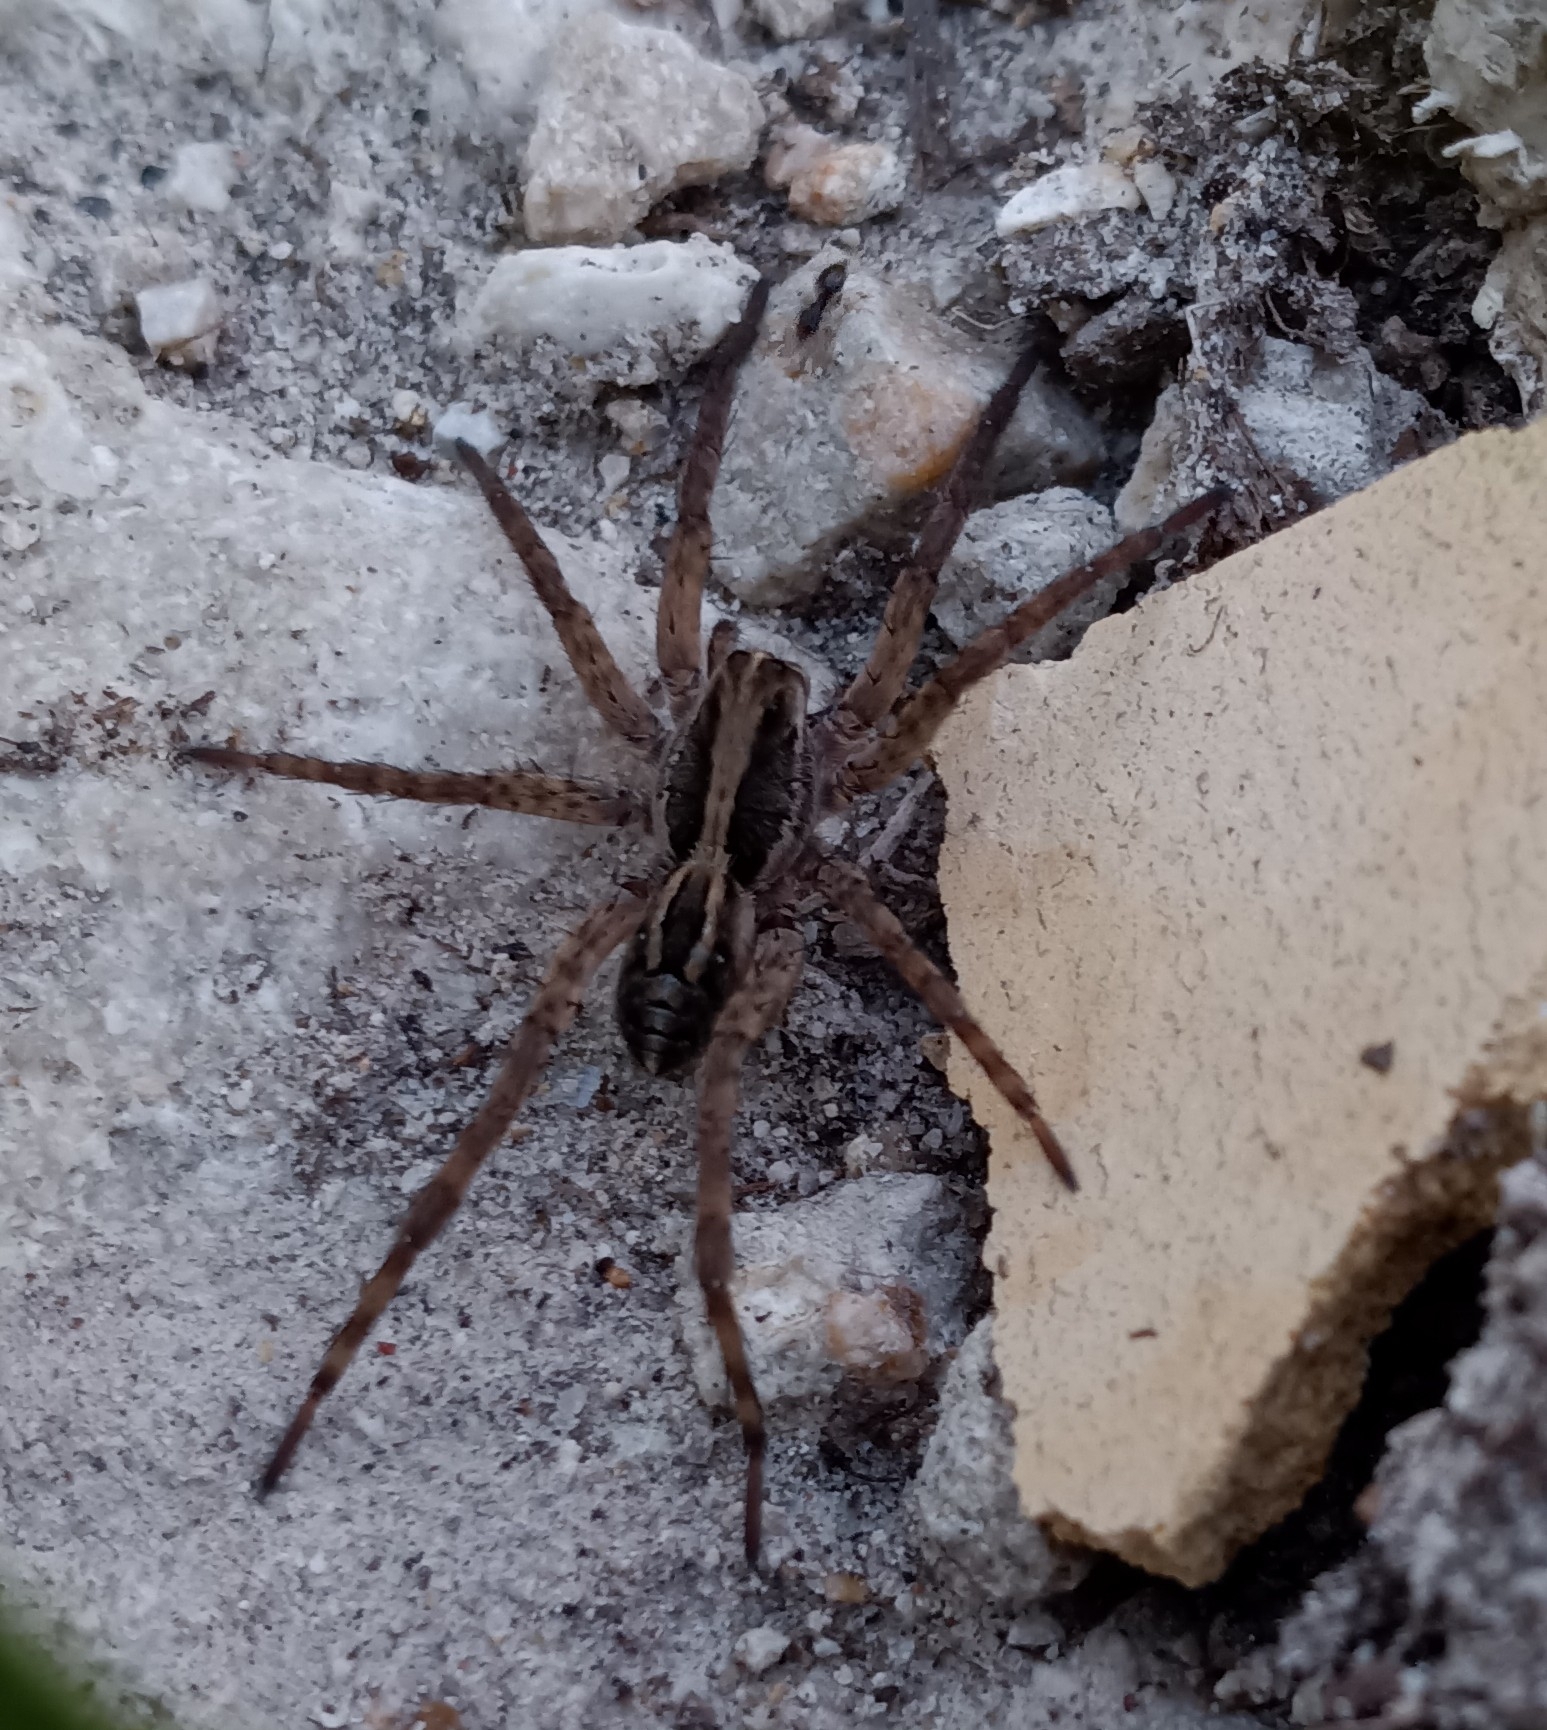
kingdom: Animalia
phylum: Arthropoda
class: Arachnida
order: Araneae
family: Lycosidae
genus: Schizocosa
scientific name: Schizocosa avida
